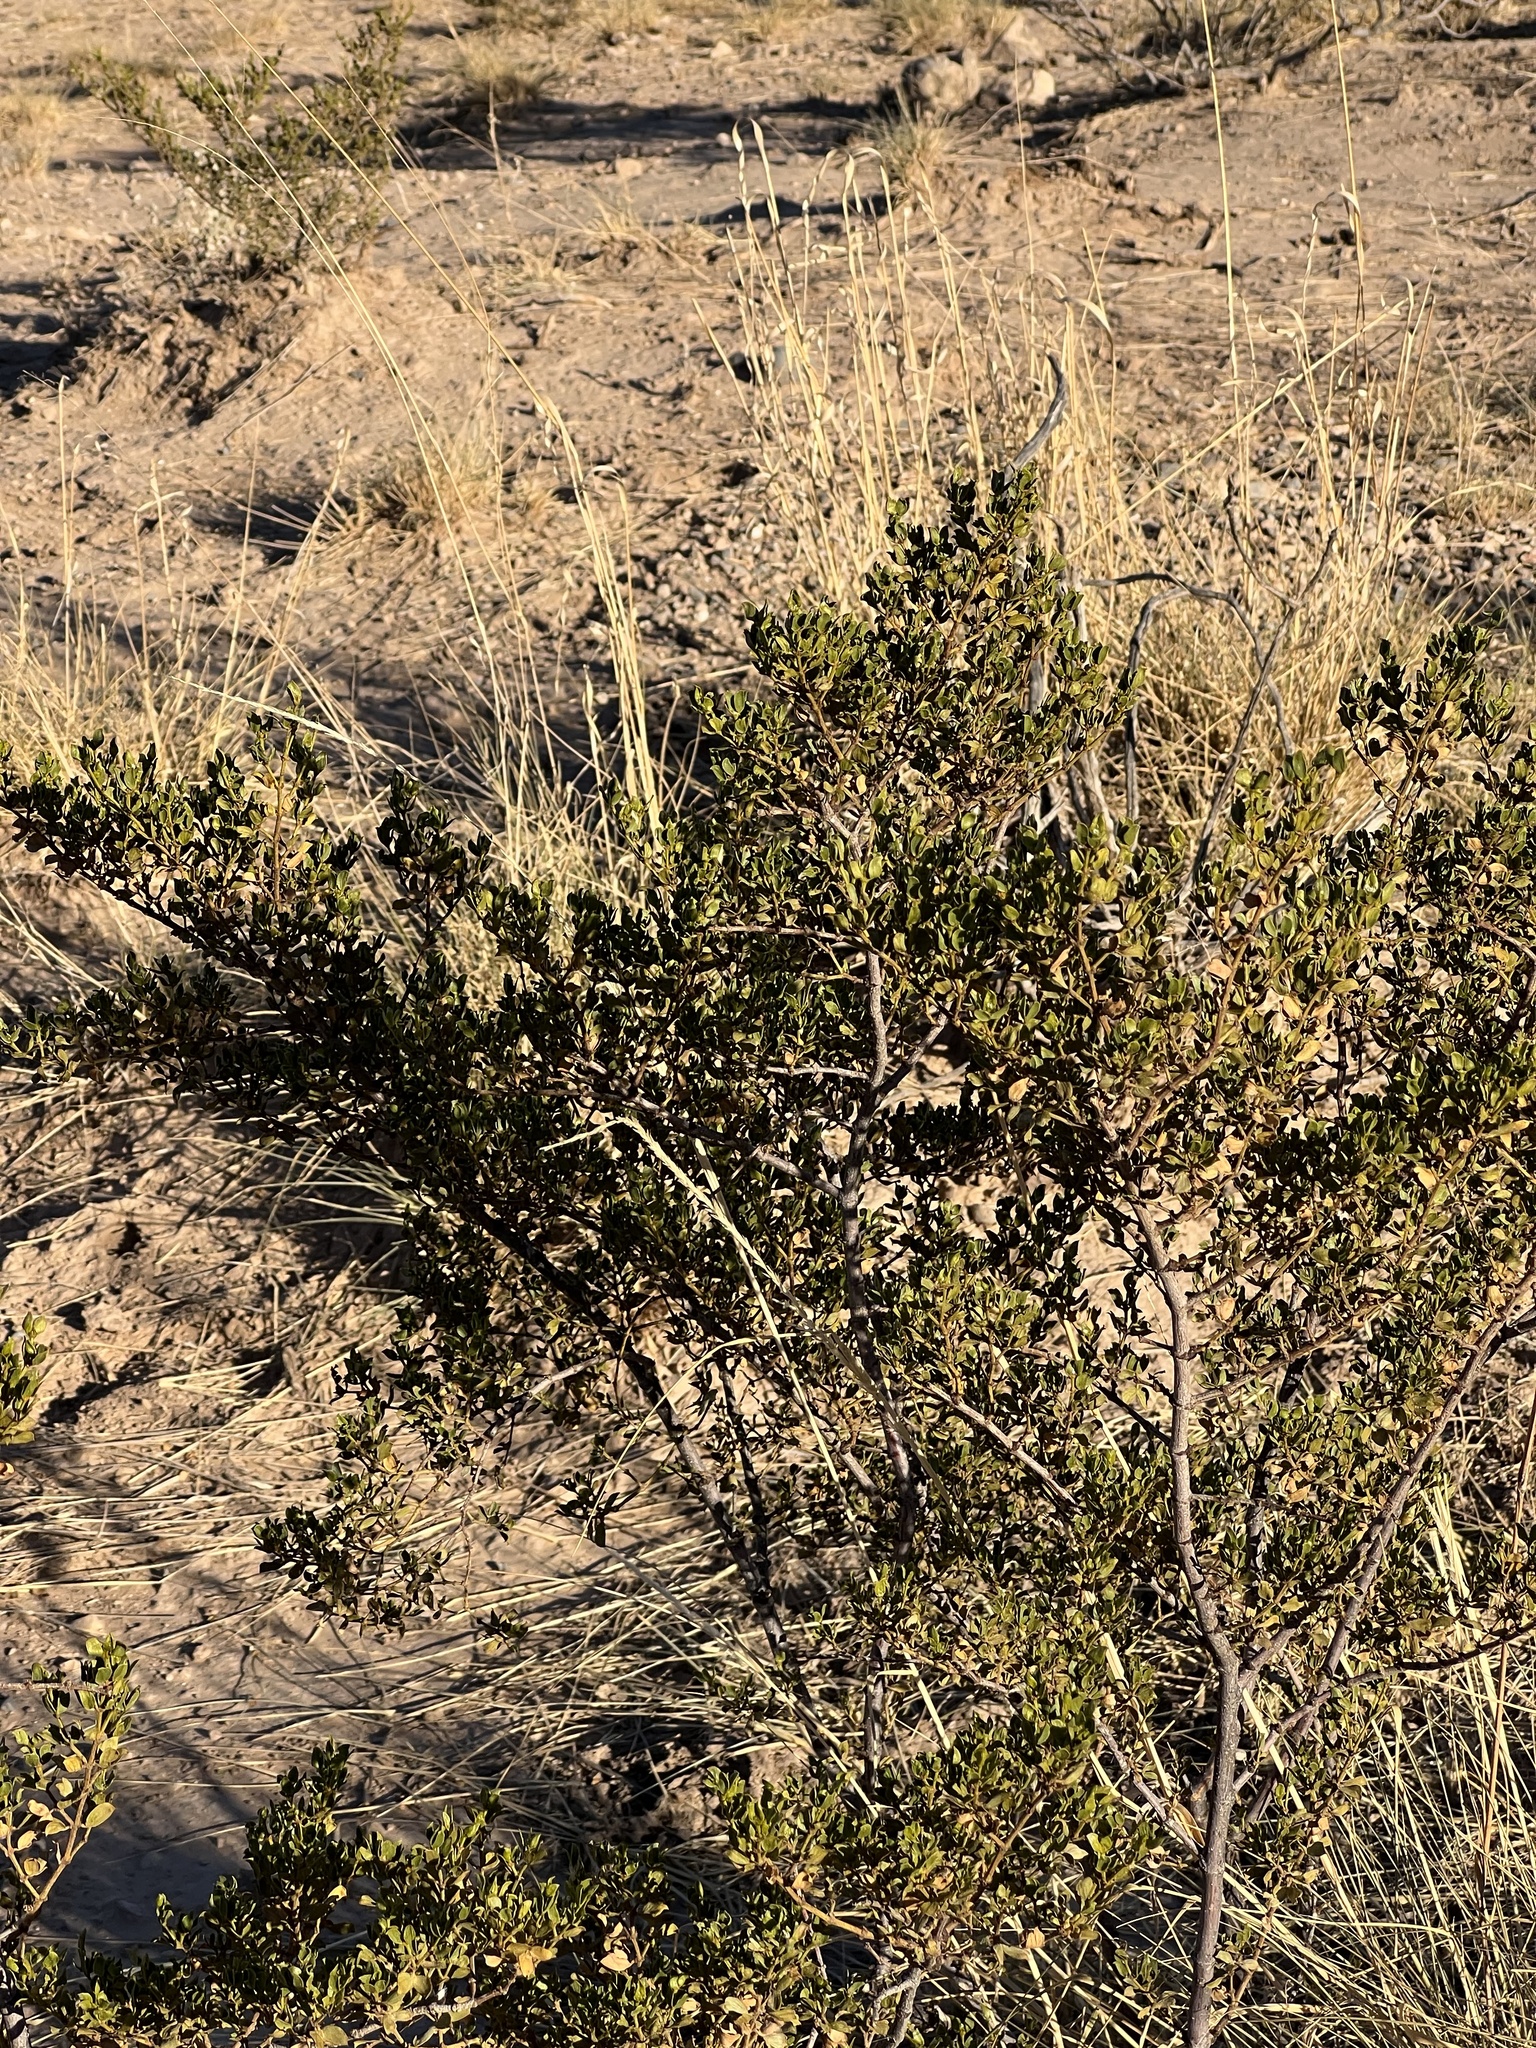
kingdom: Plantae
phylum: Tracheophyta
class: Magnoliopsida
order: Zygophyllales
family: Zygophyllaceae
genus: Larrea
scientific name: Larrea tridentata
